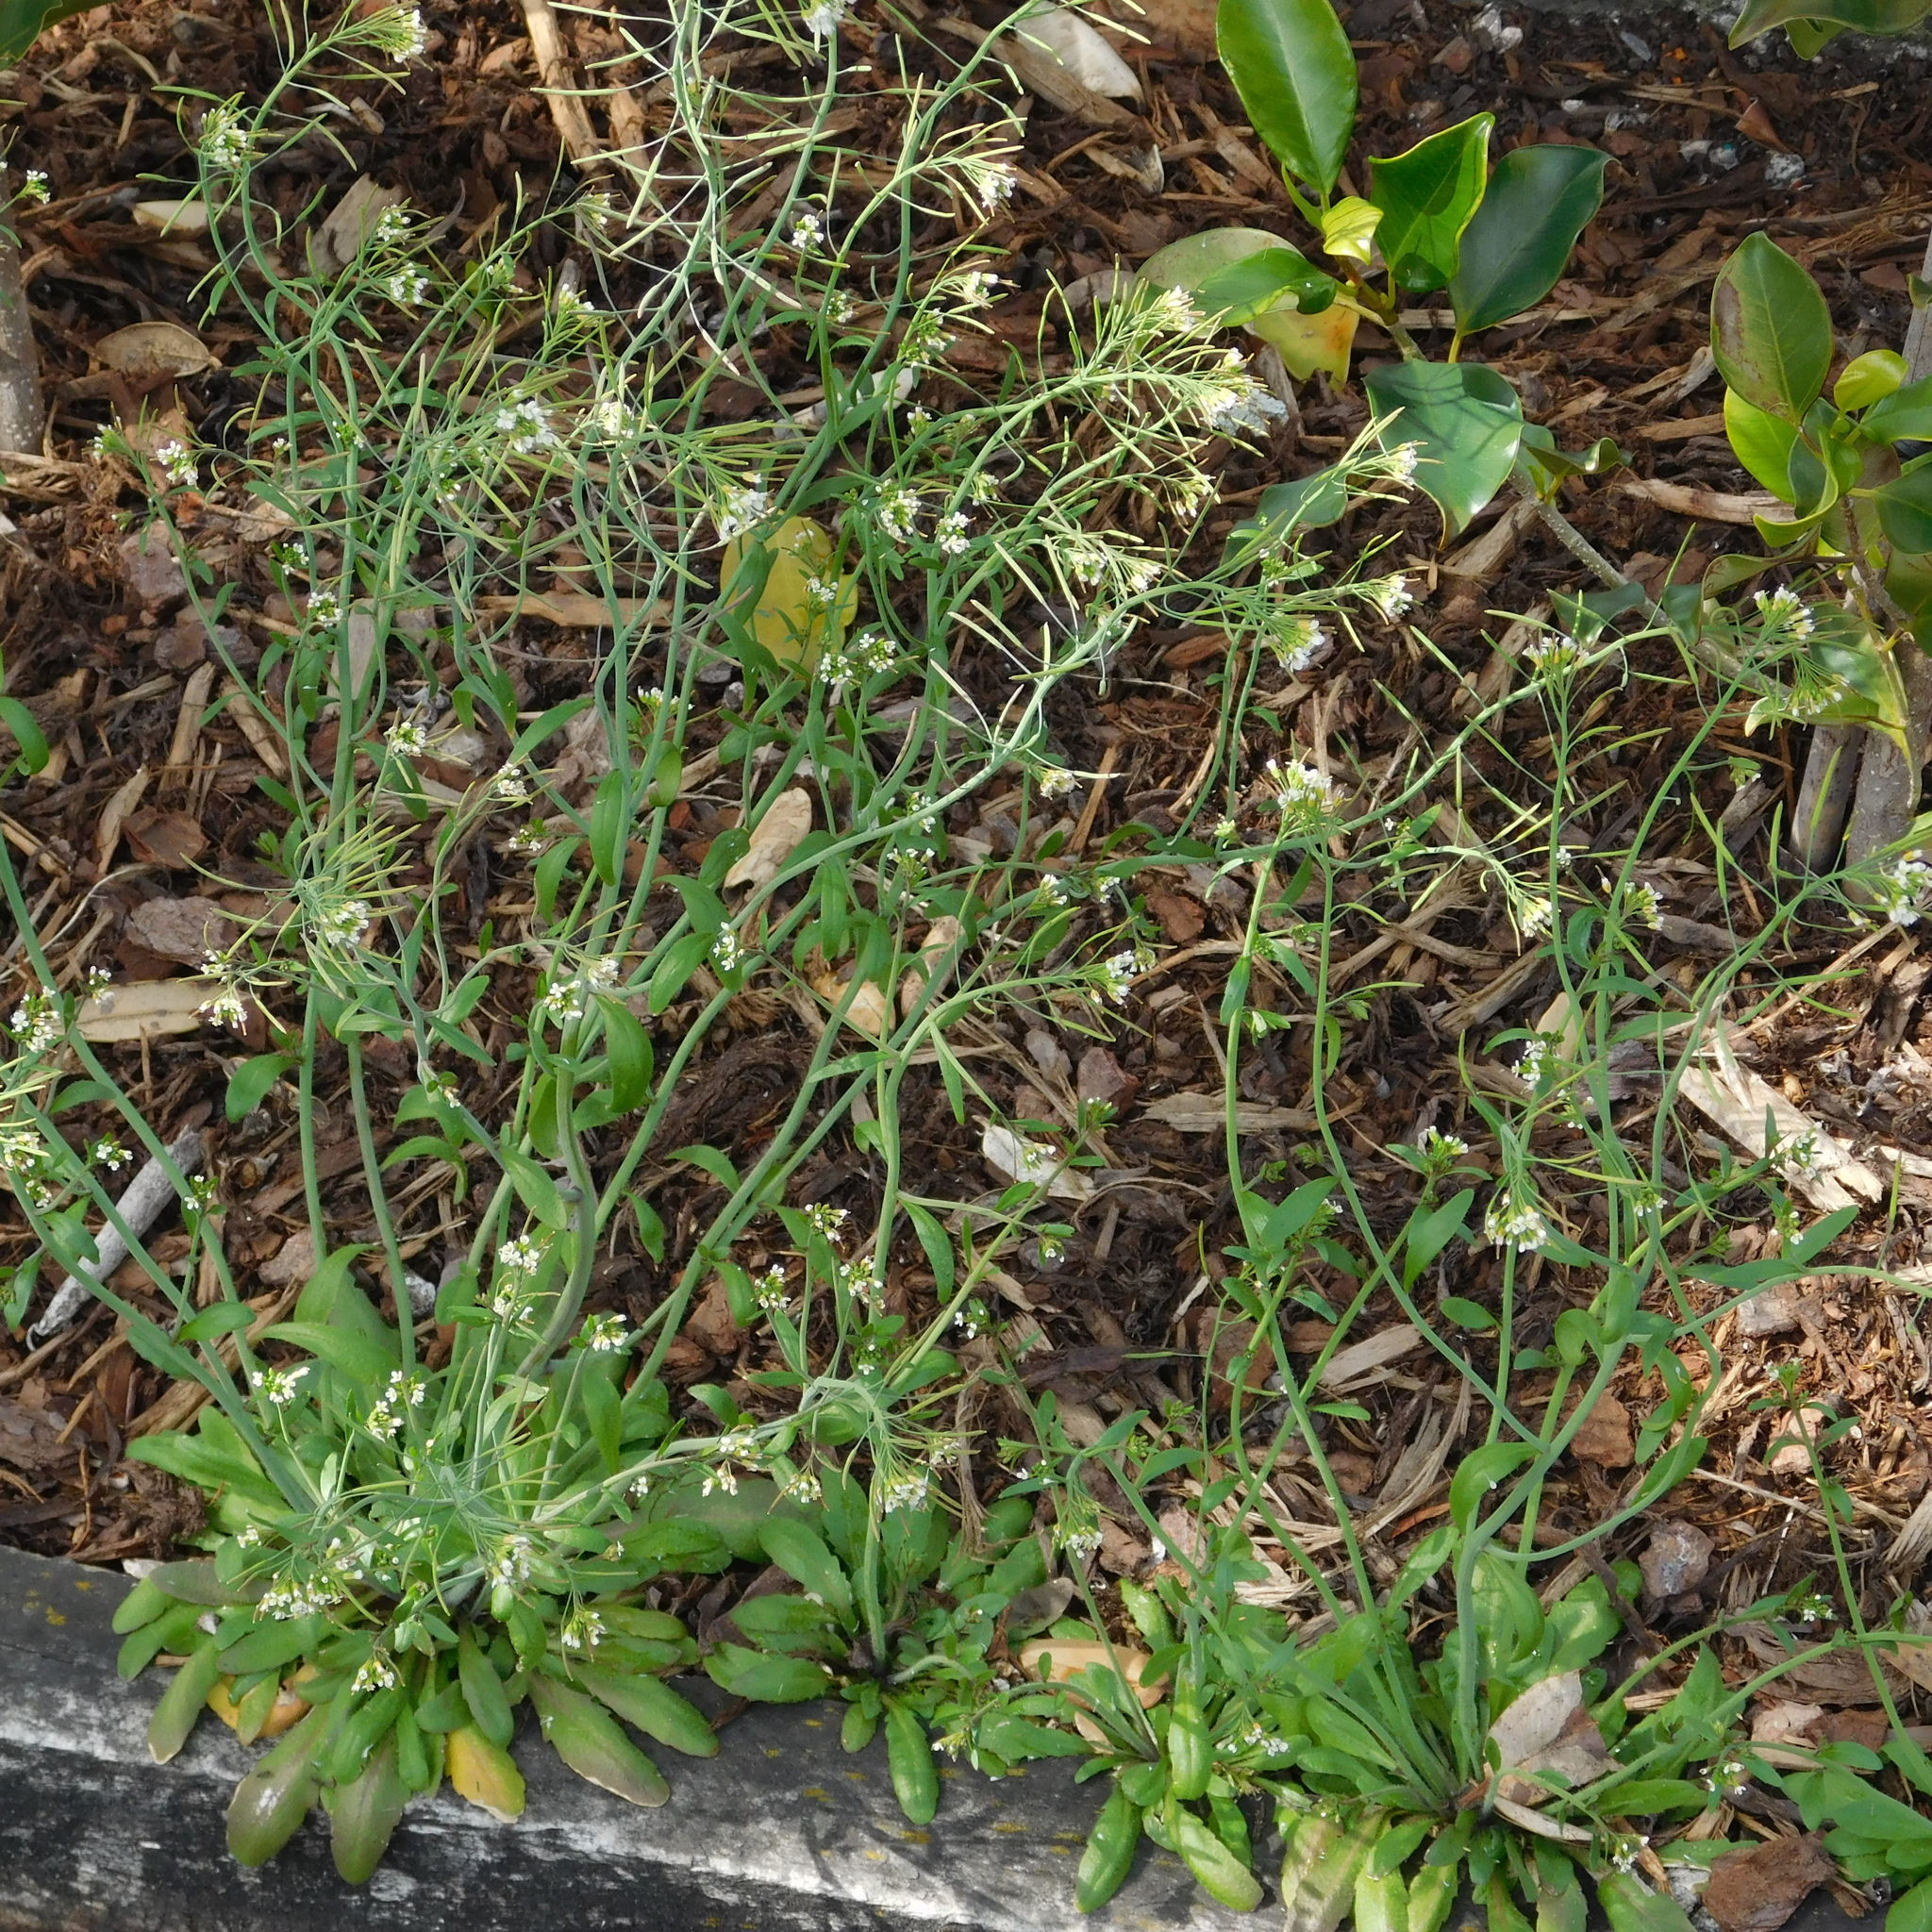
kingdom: Plantae
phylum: Tracheophyta
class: Magnoliopsida
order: Brassicales
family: Brassicaceae
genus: Arabidopsis
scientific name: Arabidopsis thaliana
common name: Thale cress
